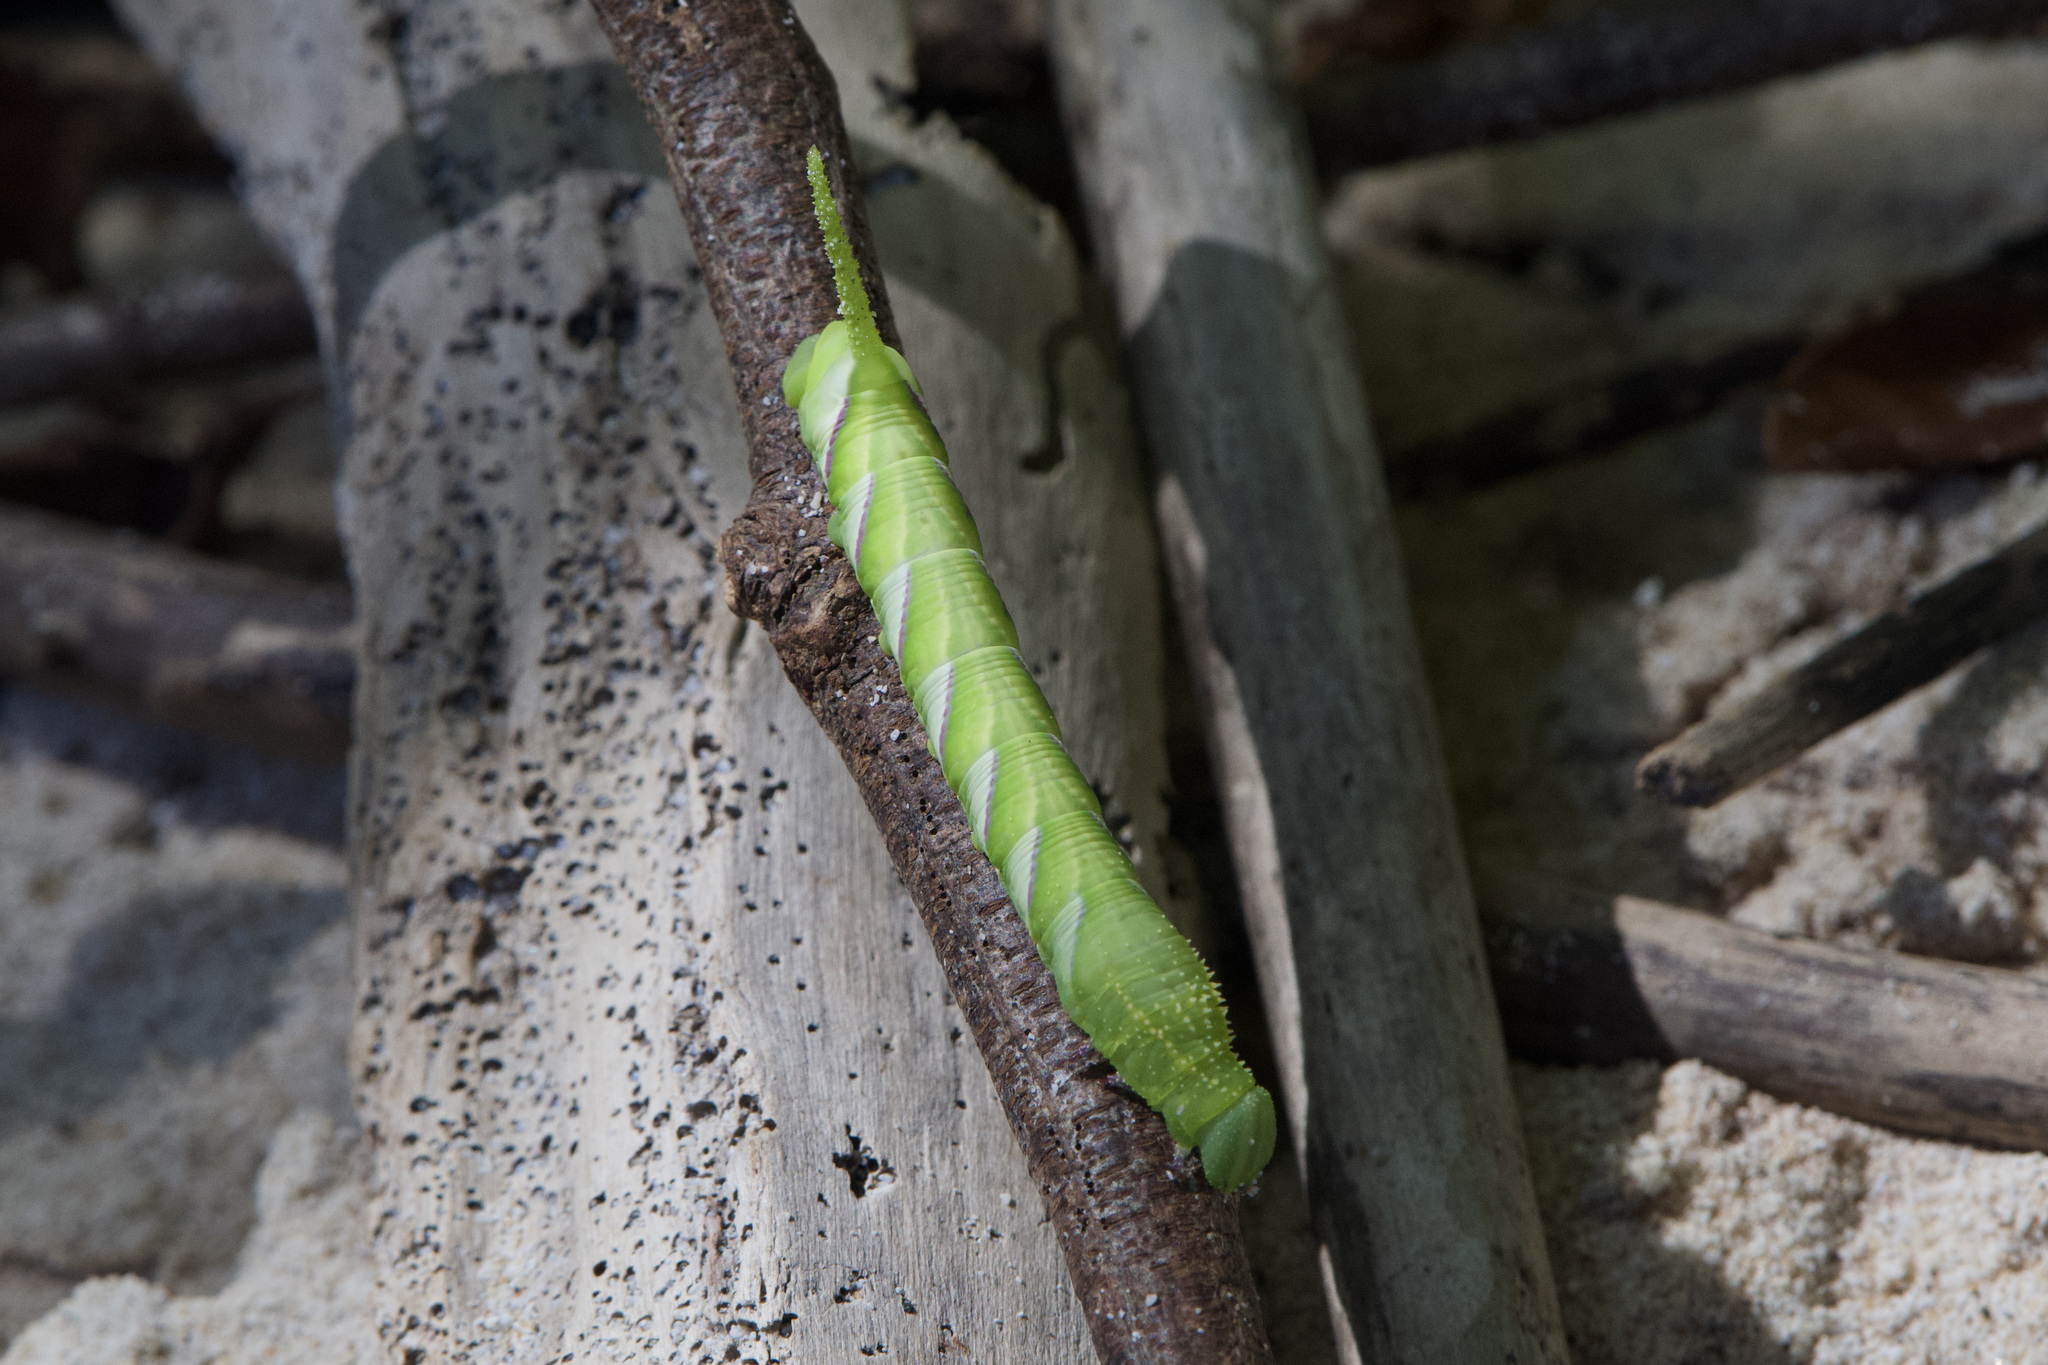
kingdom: Animalia
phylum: Arthropoda
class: Insecta
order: Lepidoptera
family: Sphingidae
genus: Manduca
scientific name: Manduca rustica
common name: Rustic sphinx
